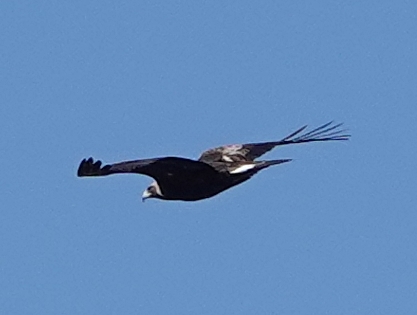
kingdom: Animalia
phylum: Chordata
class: Aves
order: Accipitriformes
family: Accipitridae
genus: Aquila
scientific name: Aquila chrysaetos
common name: Golden eagle
